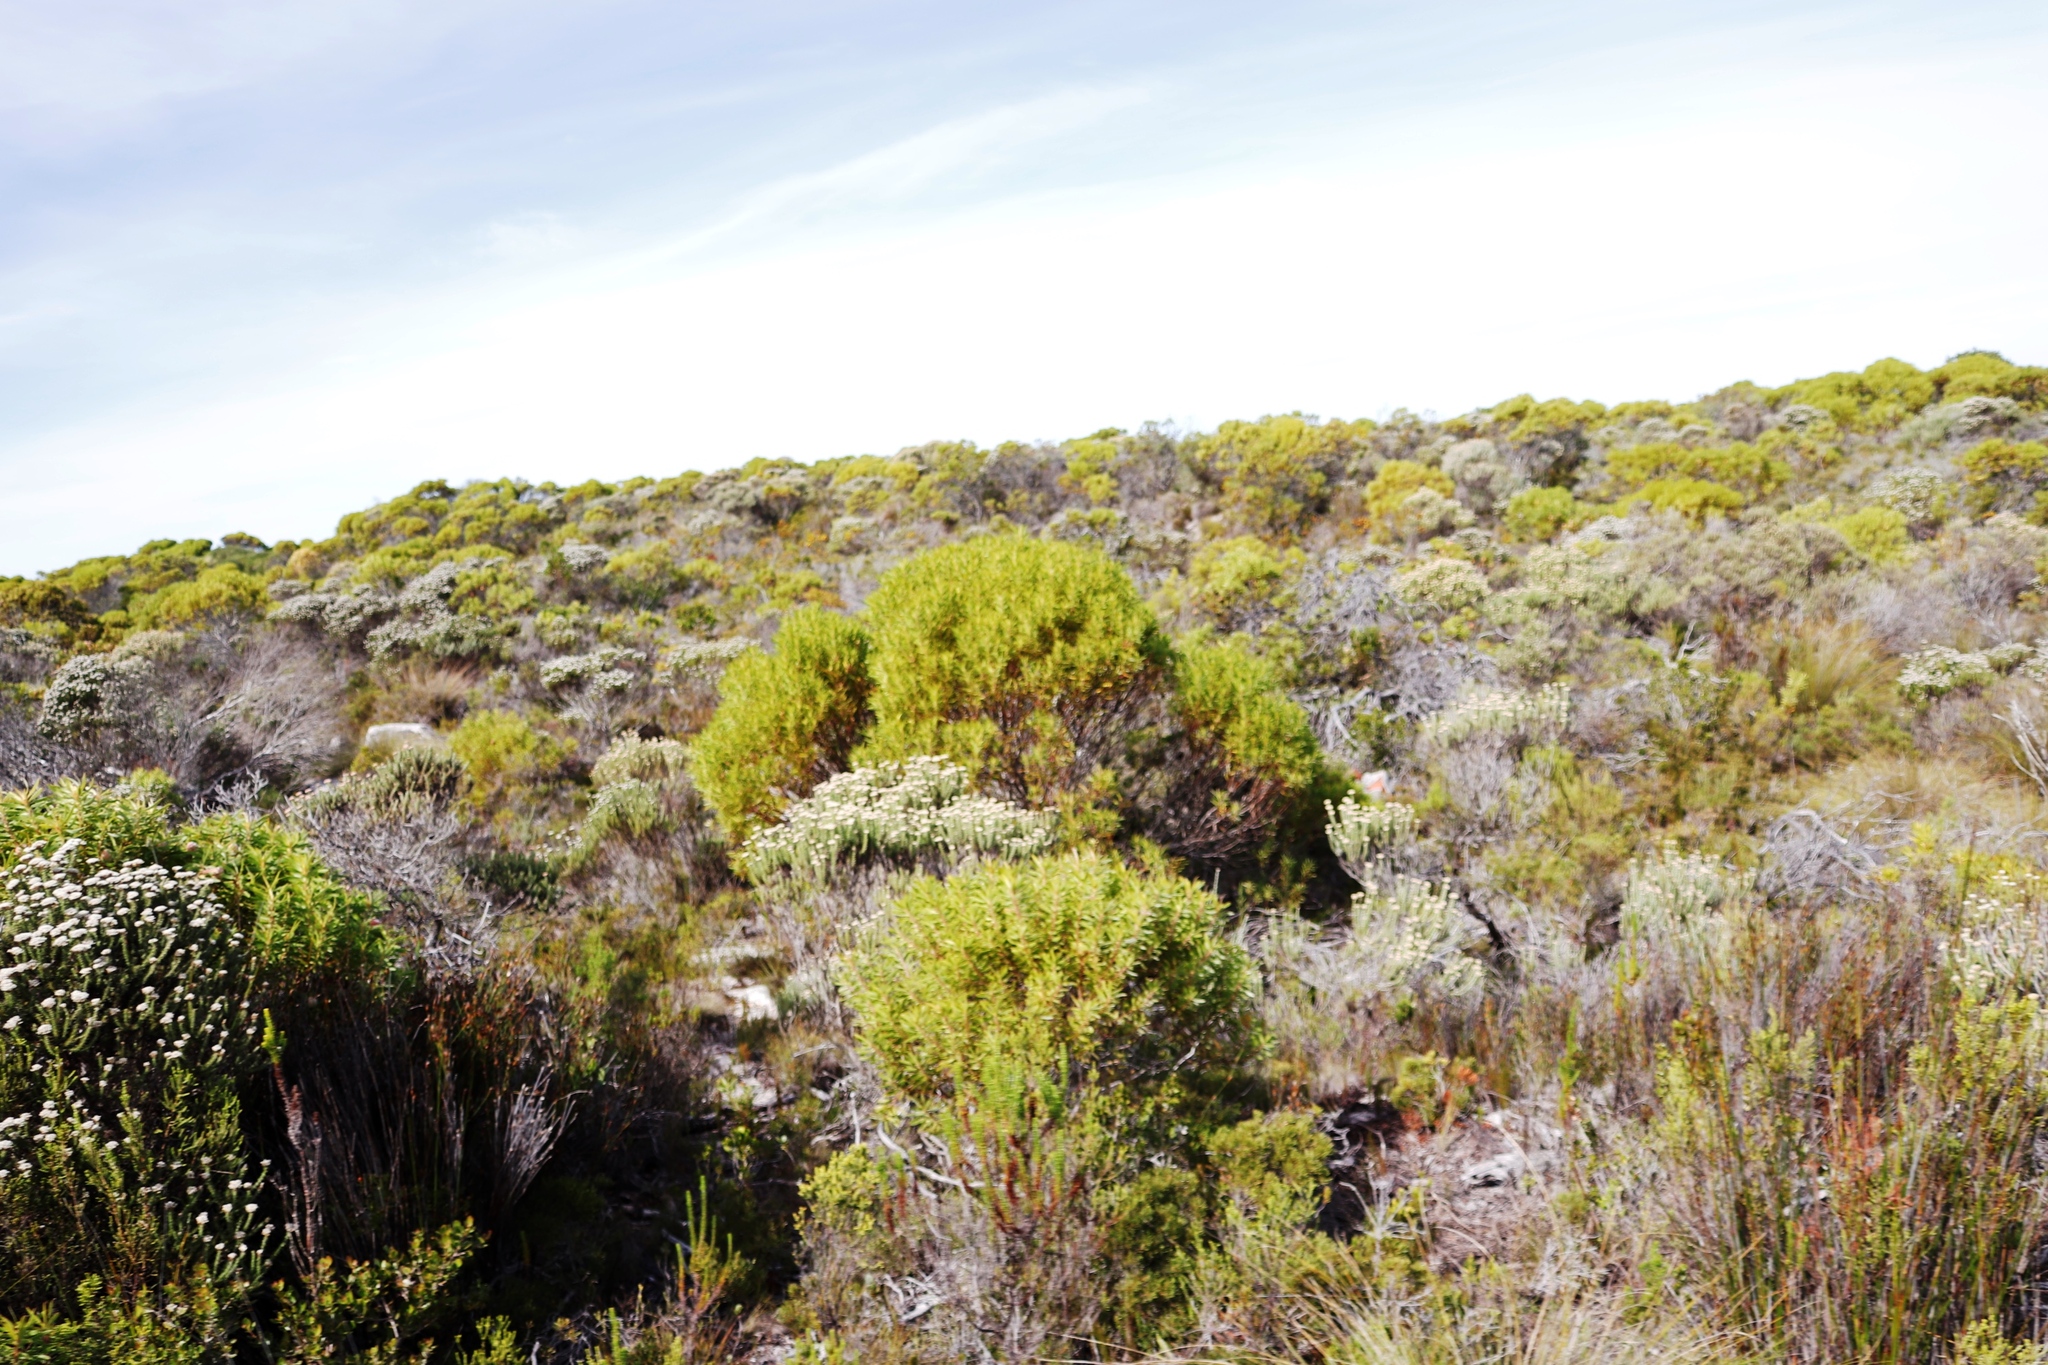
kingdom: Plantae
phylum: Tracheophyta
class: Magnoliopsida
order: Proteales
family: Proteaceae
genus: Leucadendron
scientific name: Leucadendron coniferum
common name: Dune conebush
